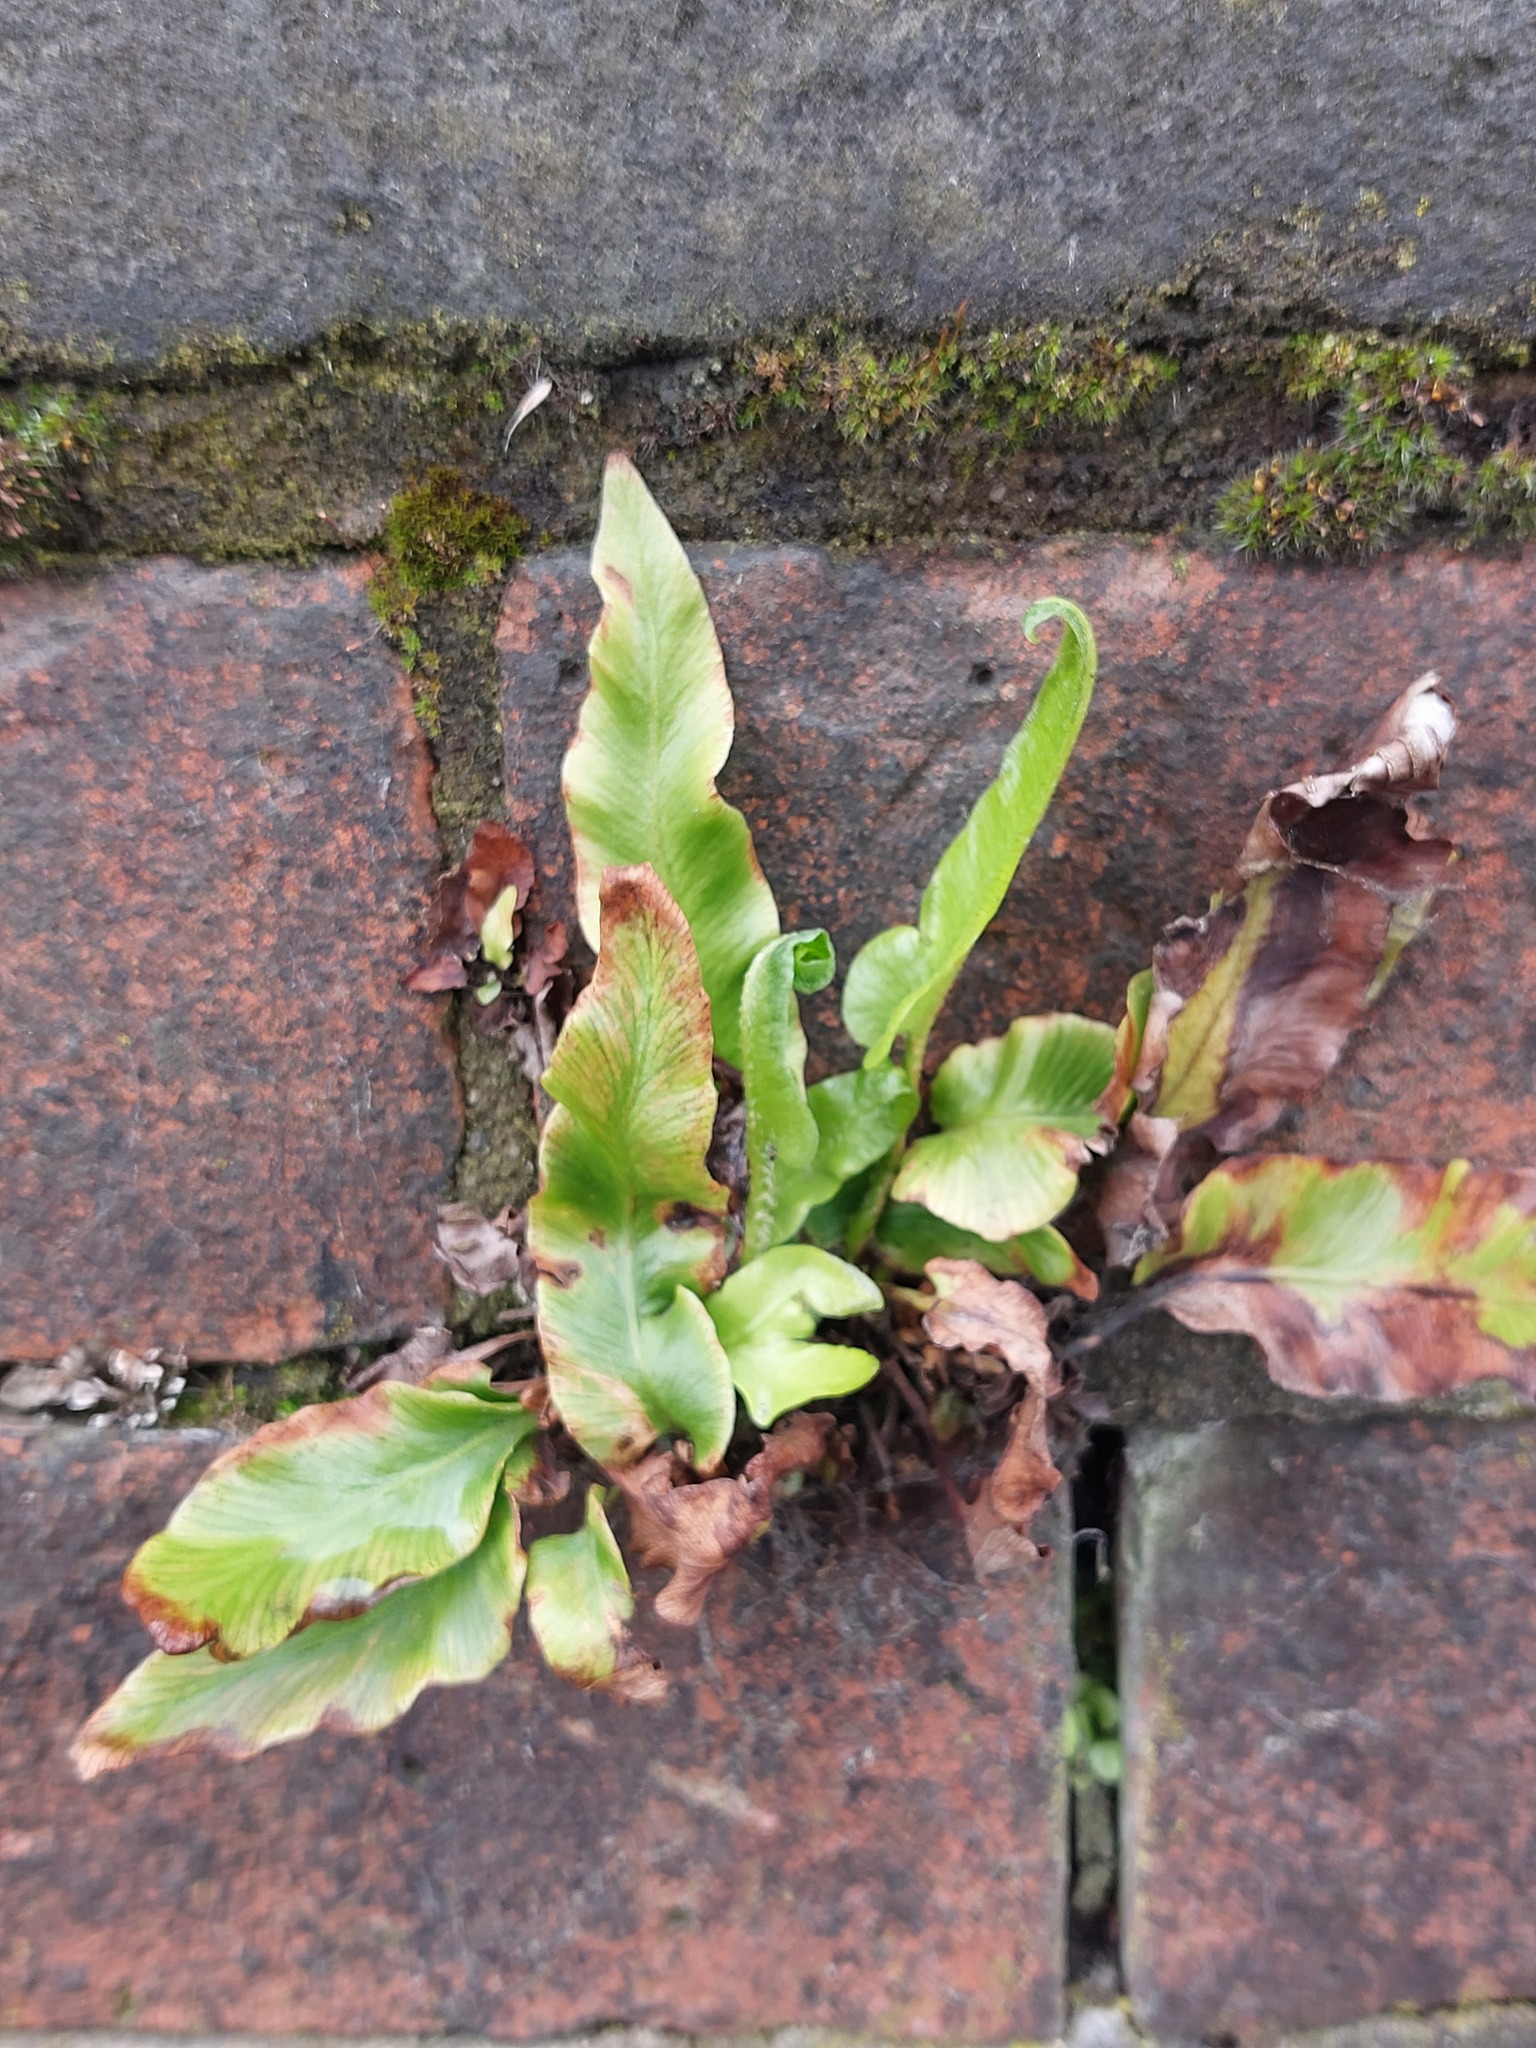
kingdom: Plantae
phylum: Tracheophyta
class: Polypodiopsida
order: Polypodiales
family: Aspleniaceae
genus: Asplenium
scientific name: Asplenium scolopendrium
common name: Hart's-tongue fern
